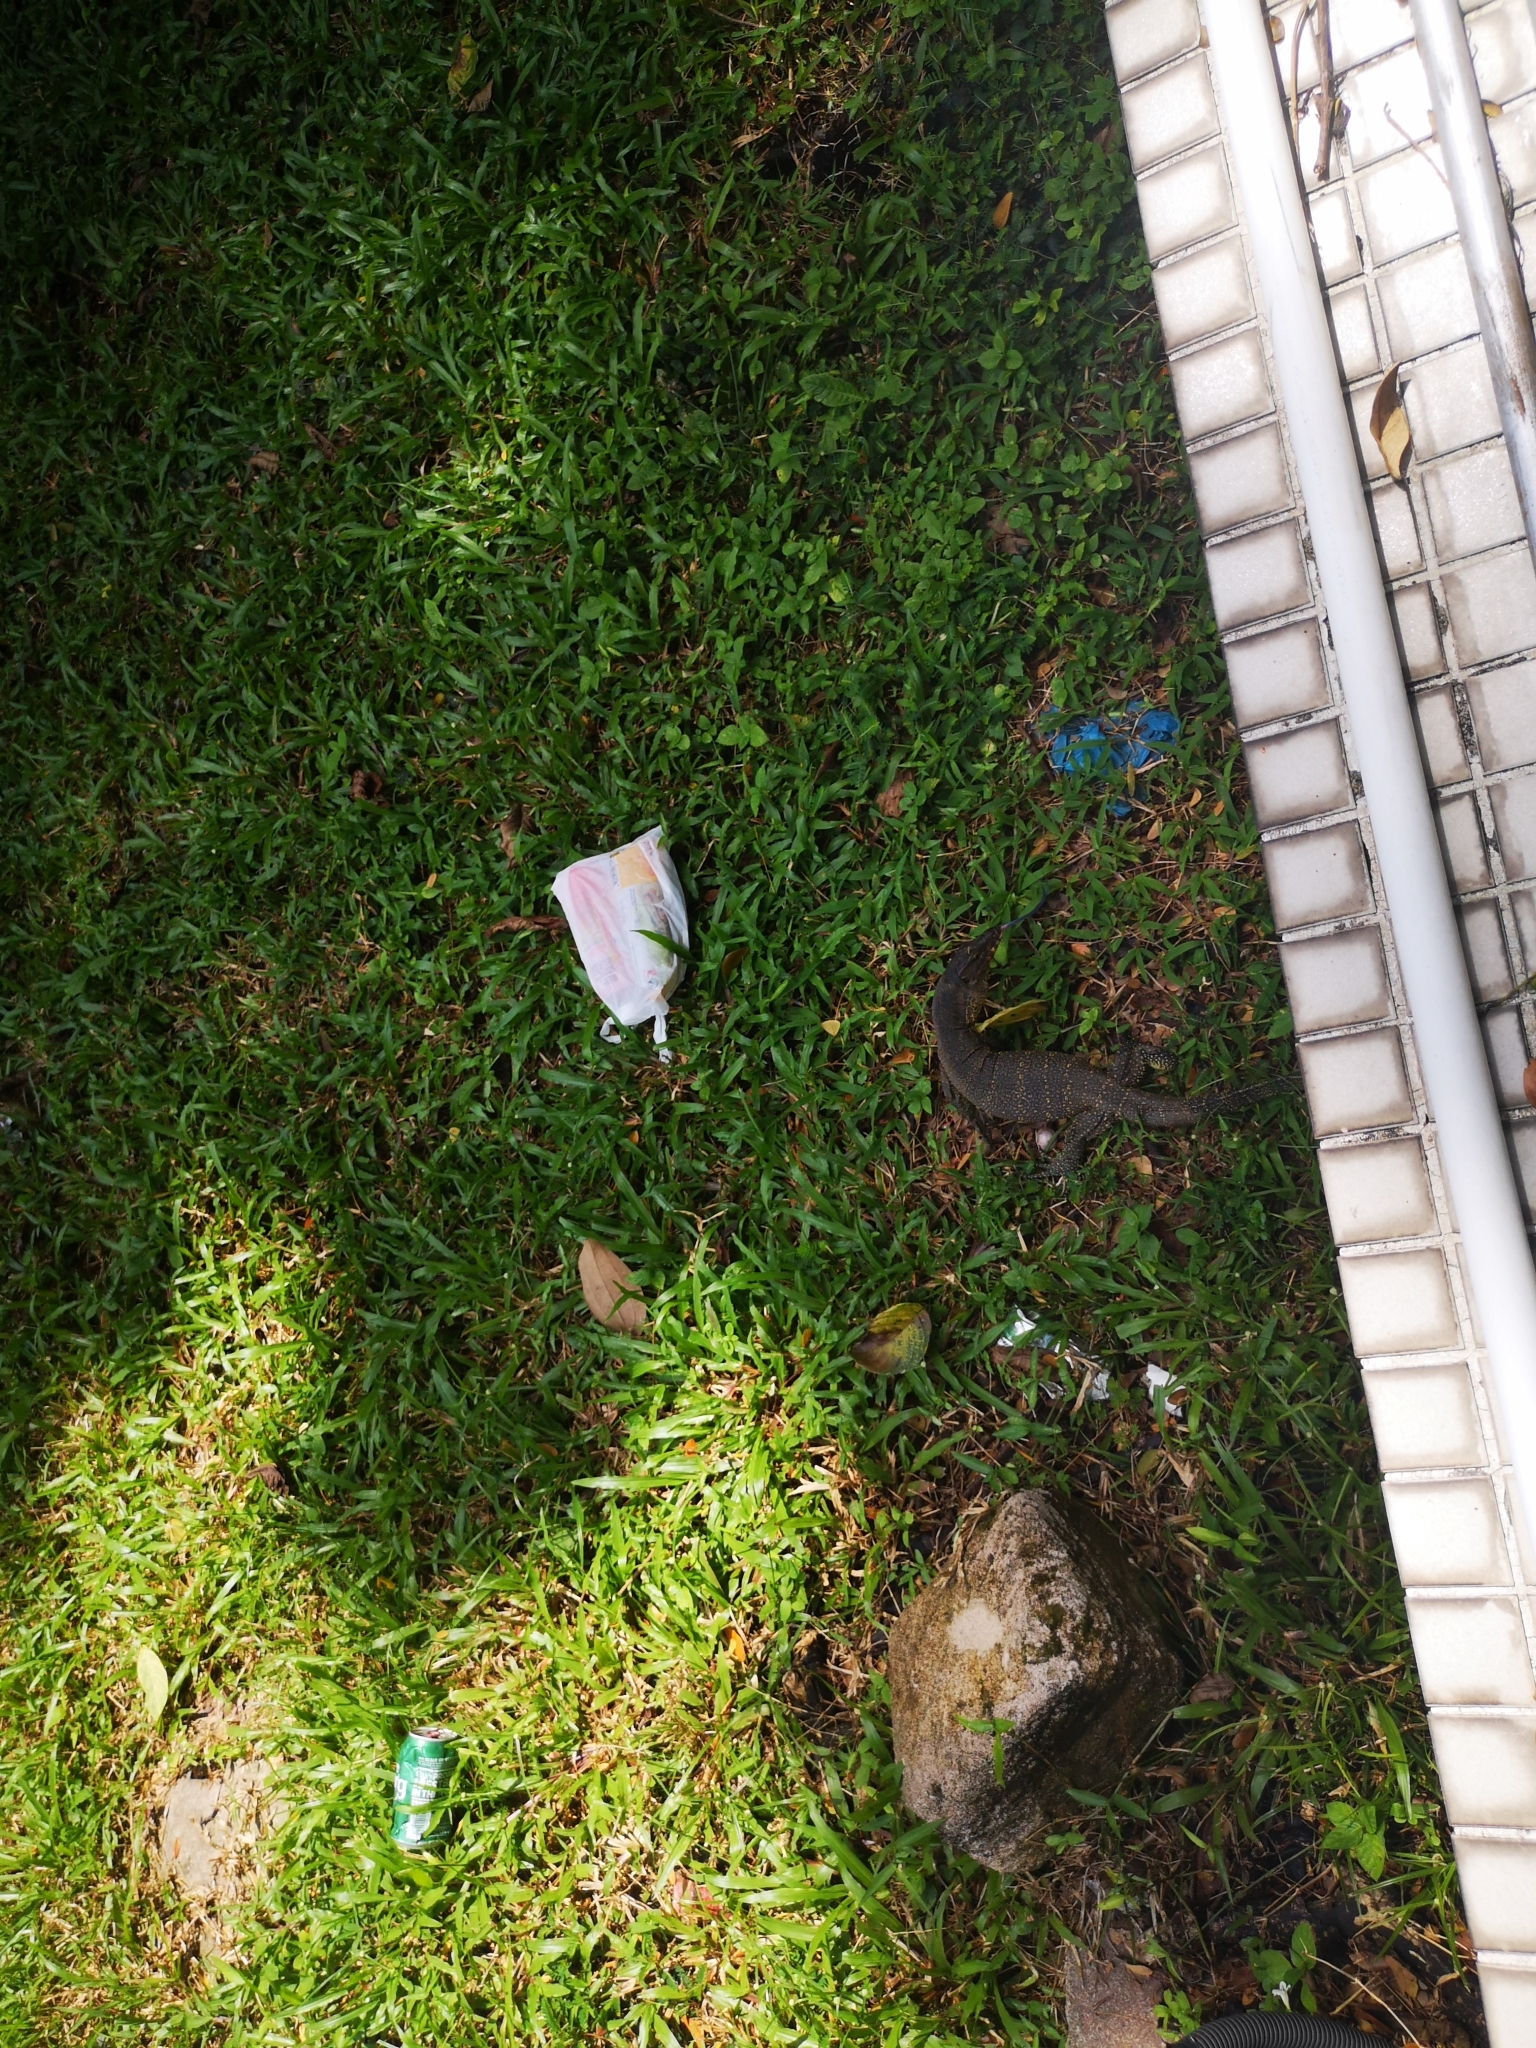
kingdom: Animalia
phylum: Chordata
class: Squamata
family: Varanidae
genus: Varanus
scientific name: Varanus salvator
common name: Common water monitor
